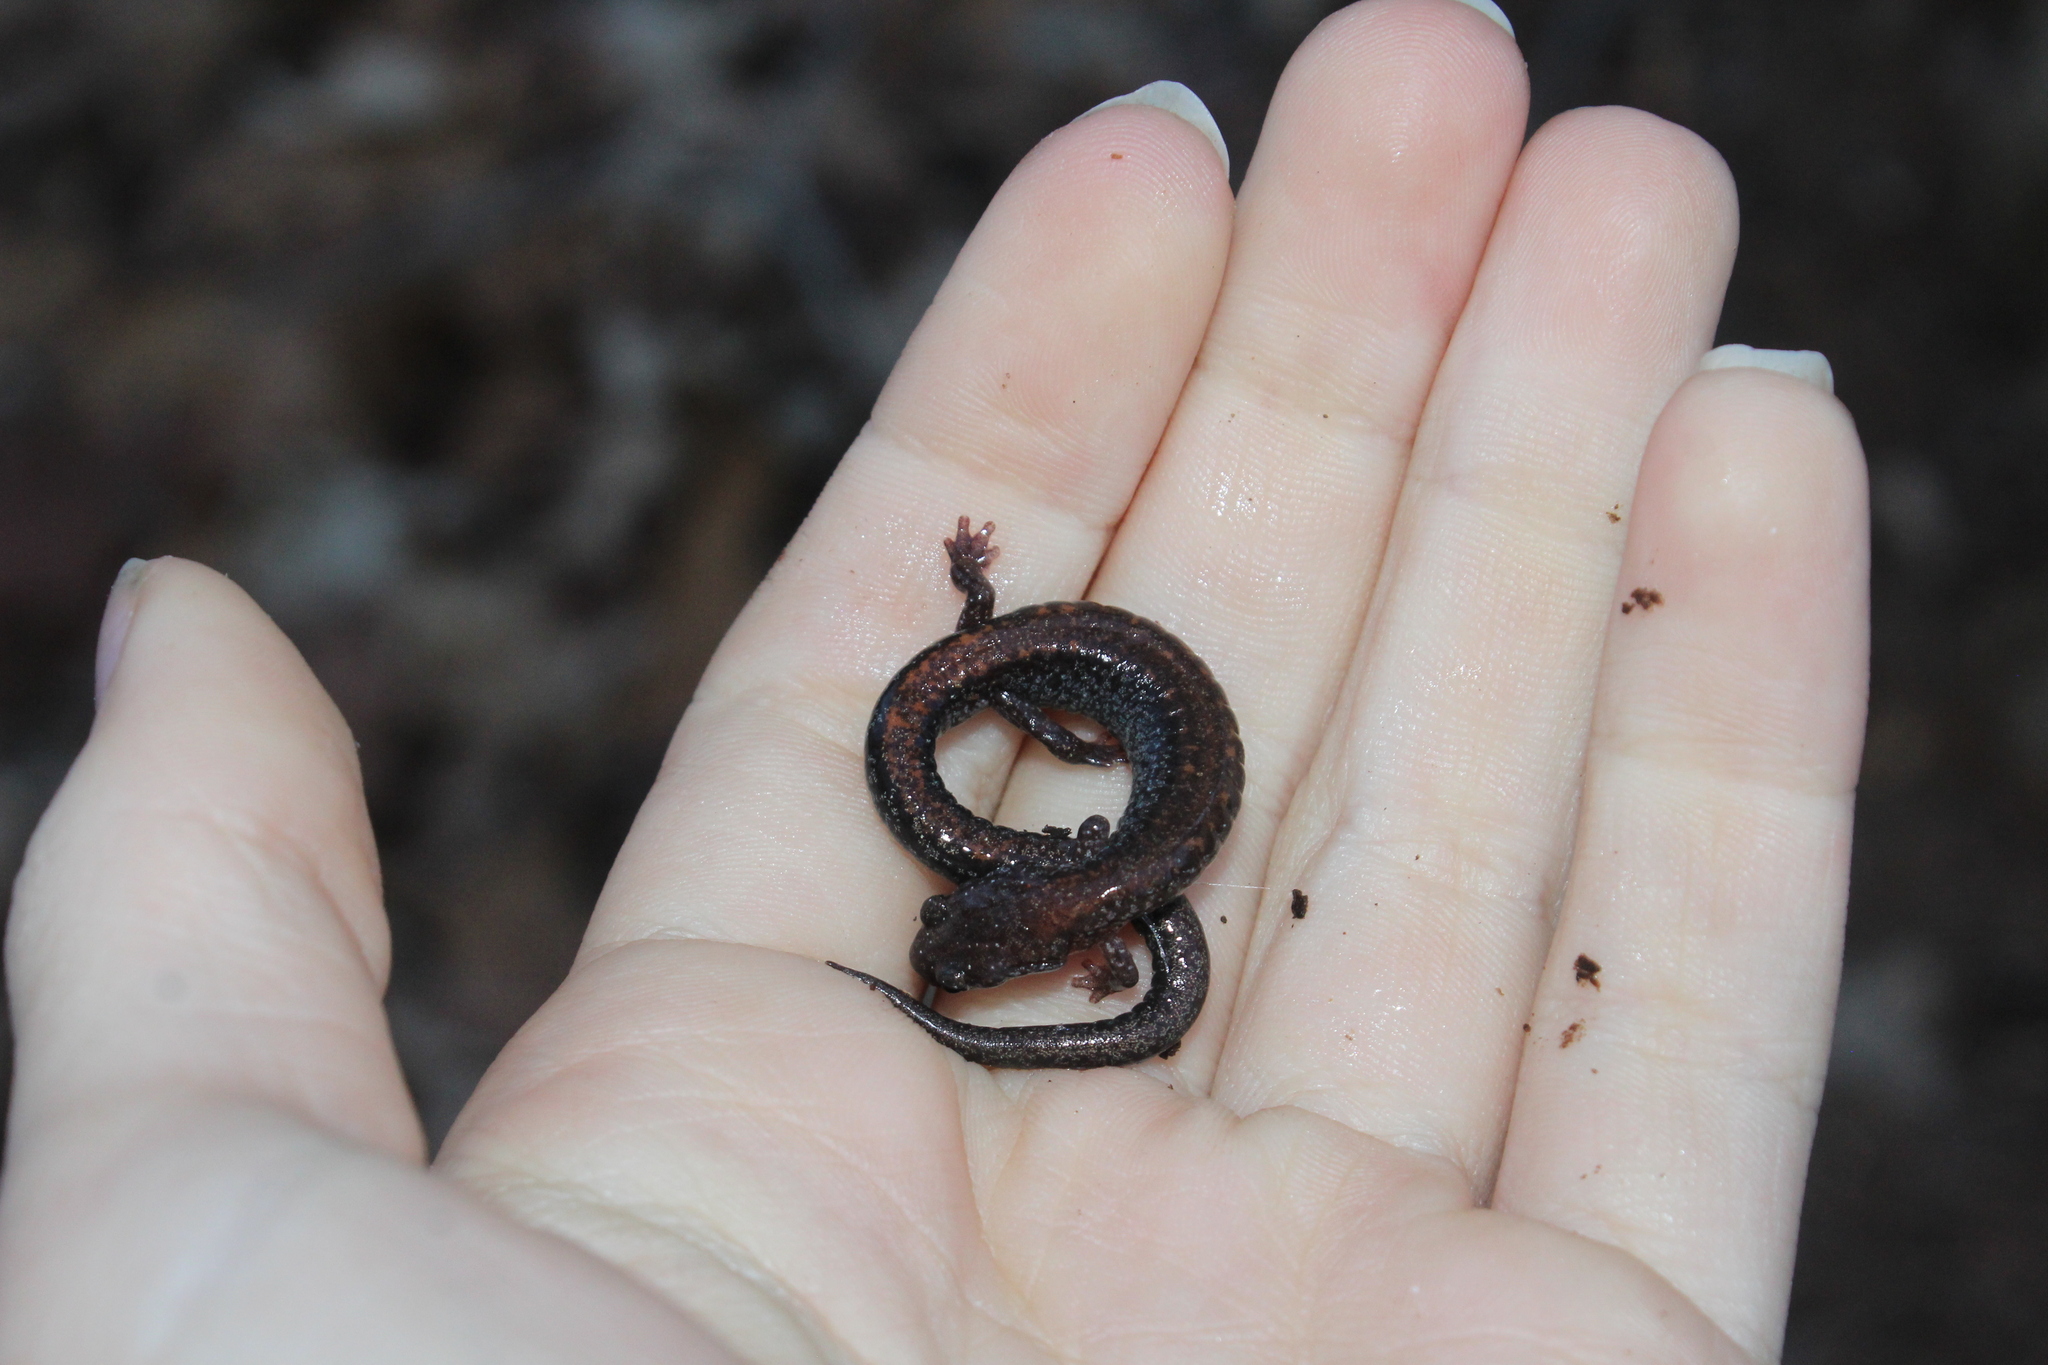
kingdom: Animalia
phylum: Chordata
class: Amphibia
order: Caudata
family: Plethodontidae
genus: Plethodon
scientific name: Plethodon cinereus
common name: Redback salamander
